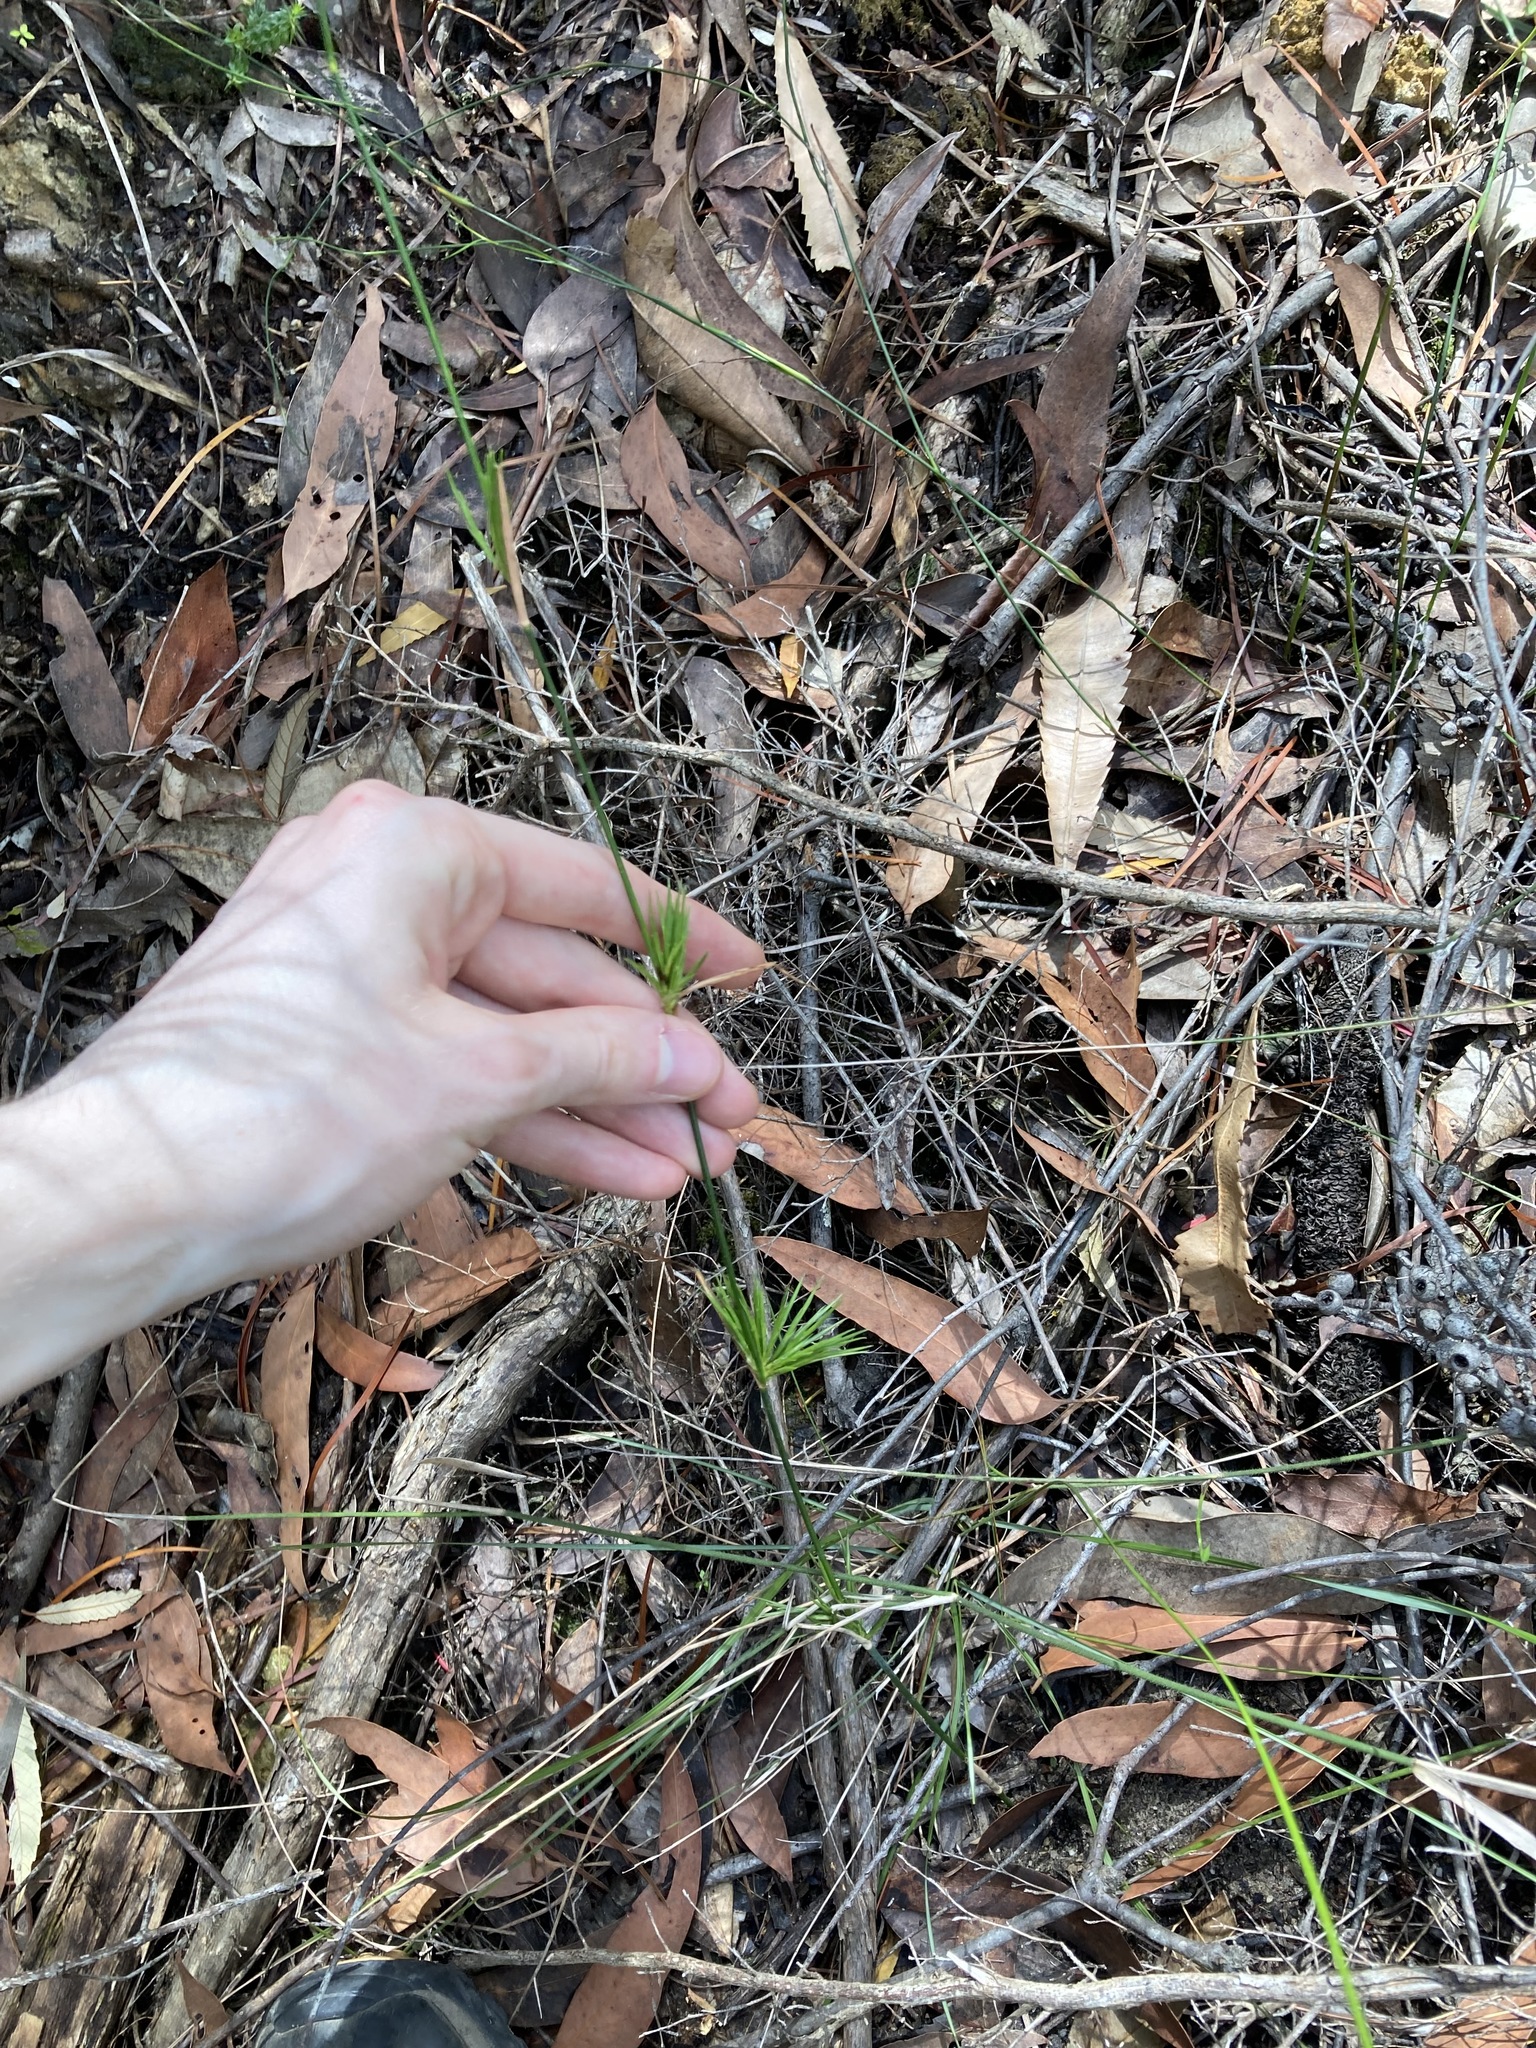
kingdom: Plantae
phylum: Tracheophyta
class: Liliopsida
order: Poales
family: Poaceae
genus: Entolasia
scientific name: Entolasia stricta
